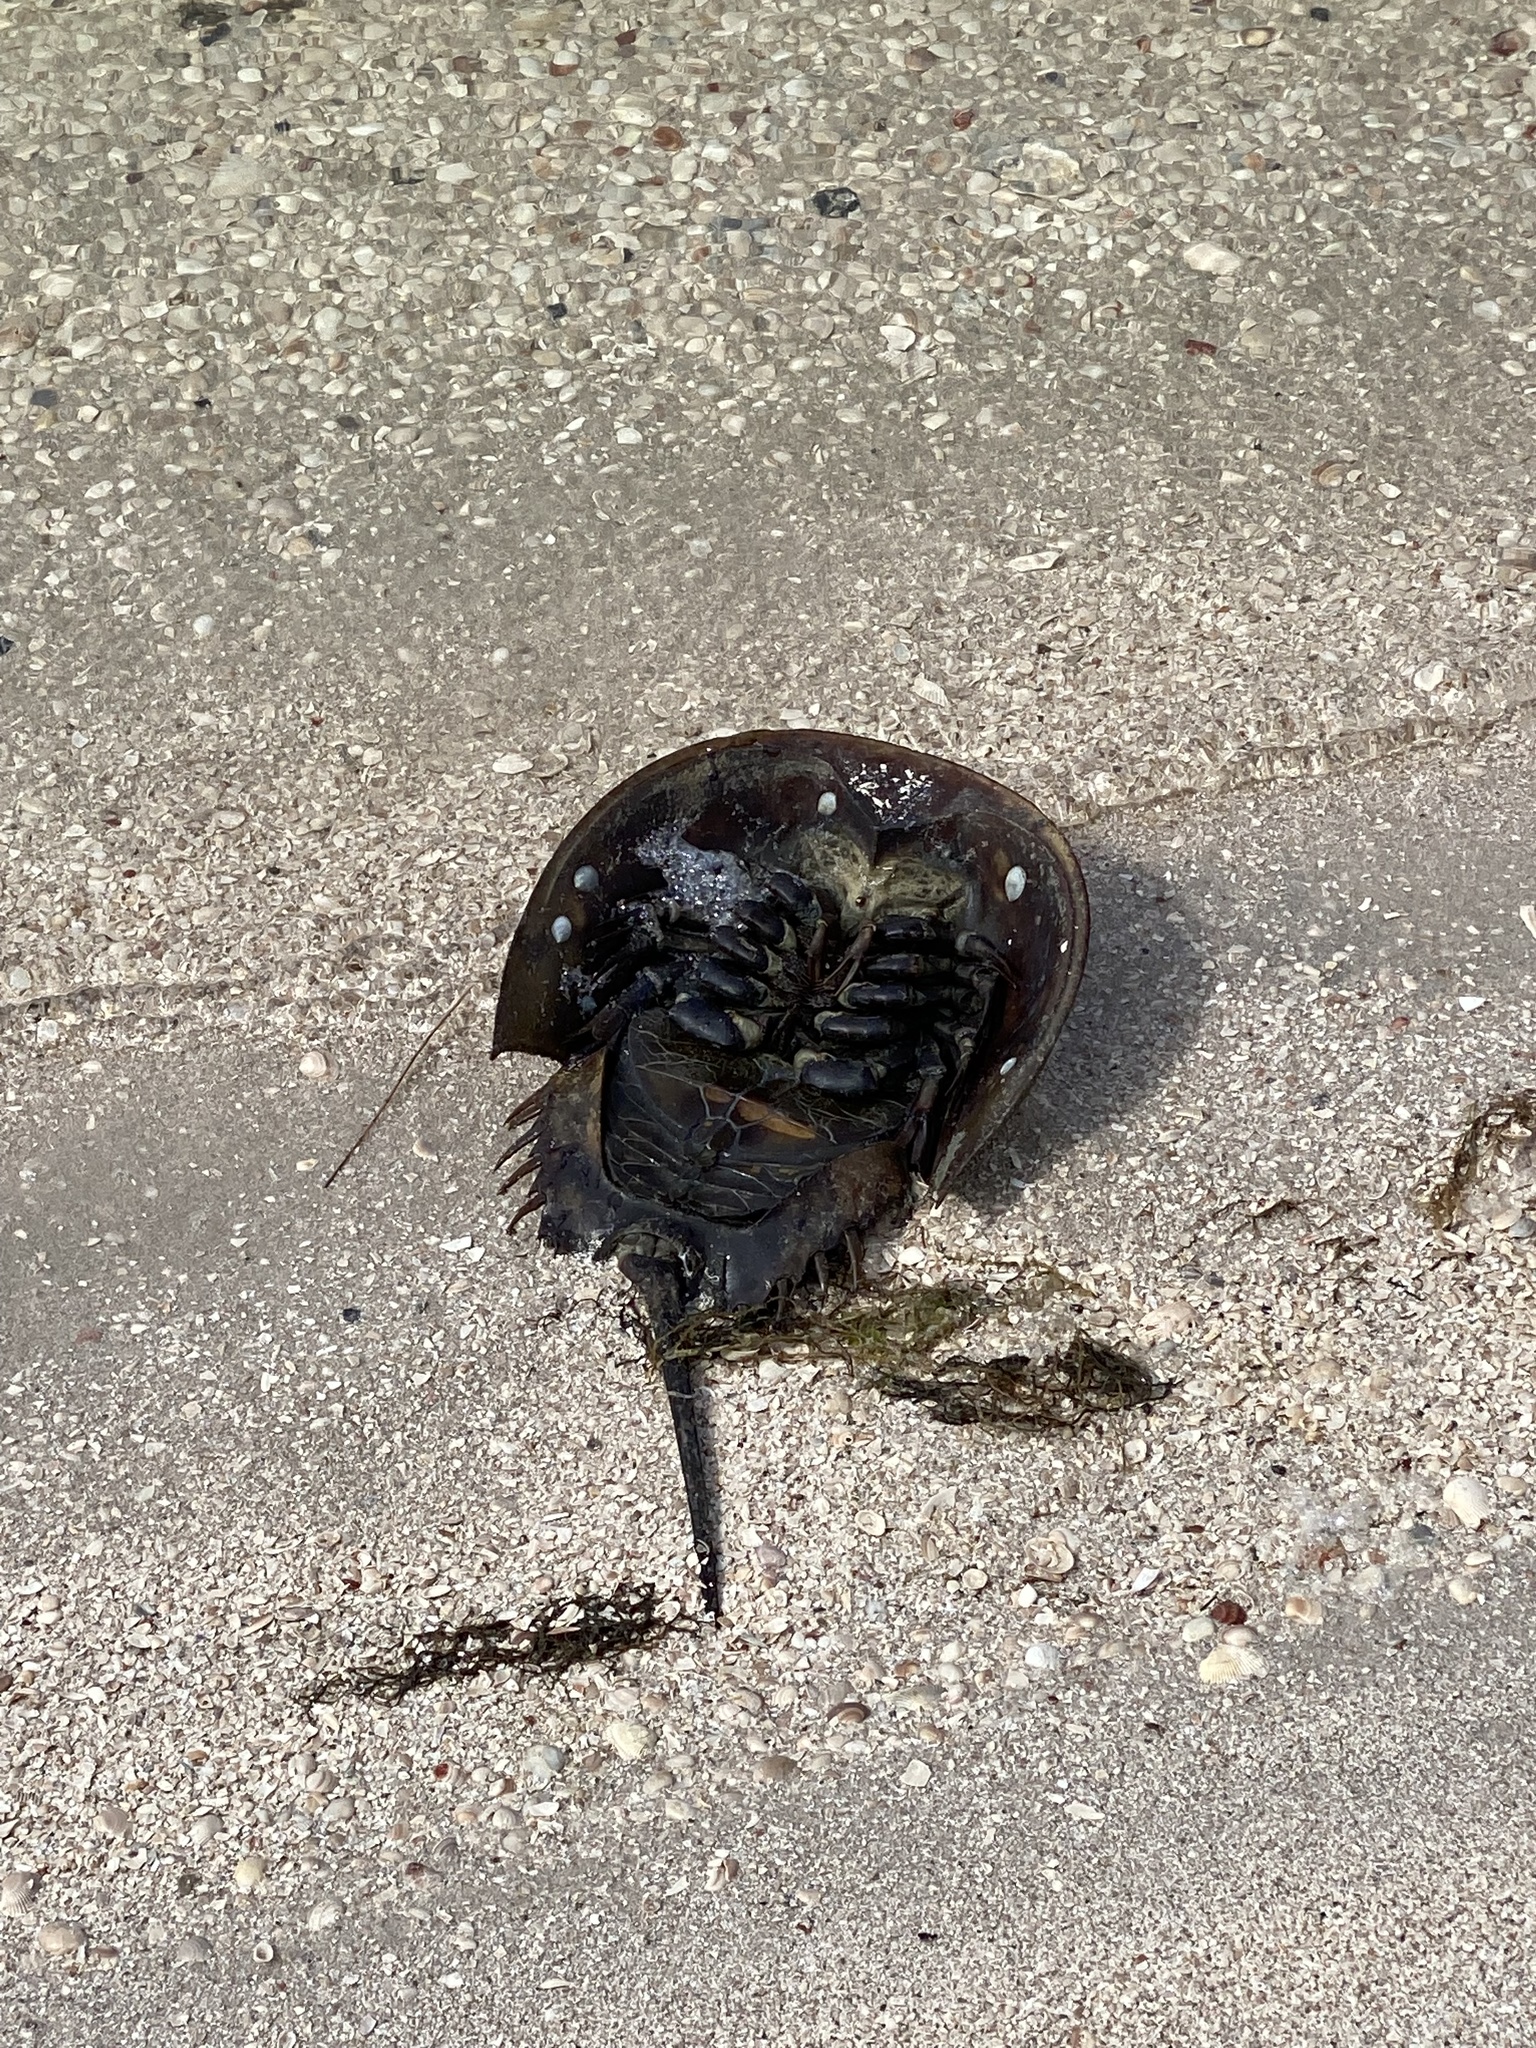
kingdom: Animalia
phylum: Arthropoda
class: Merostomata
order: Xiphosurida
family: Limulidae
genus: Limulus
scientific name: Limulus polyphemus
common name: Horseshoe crab
